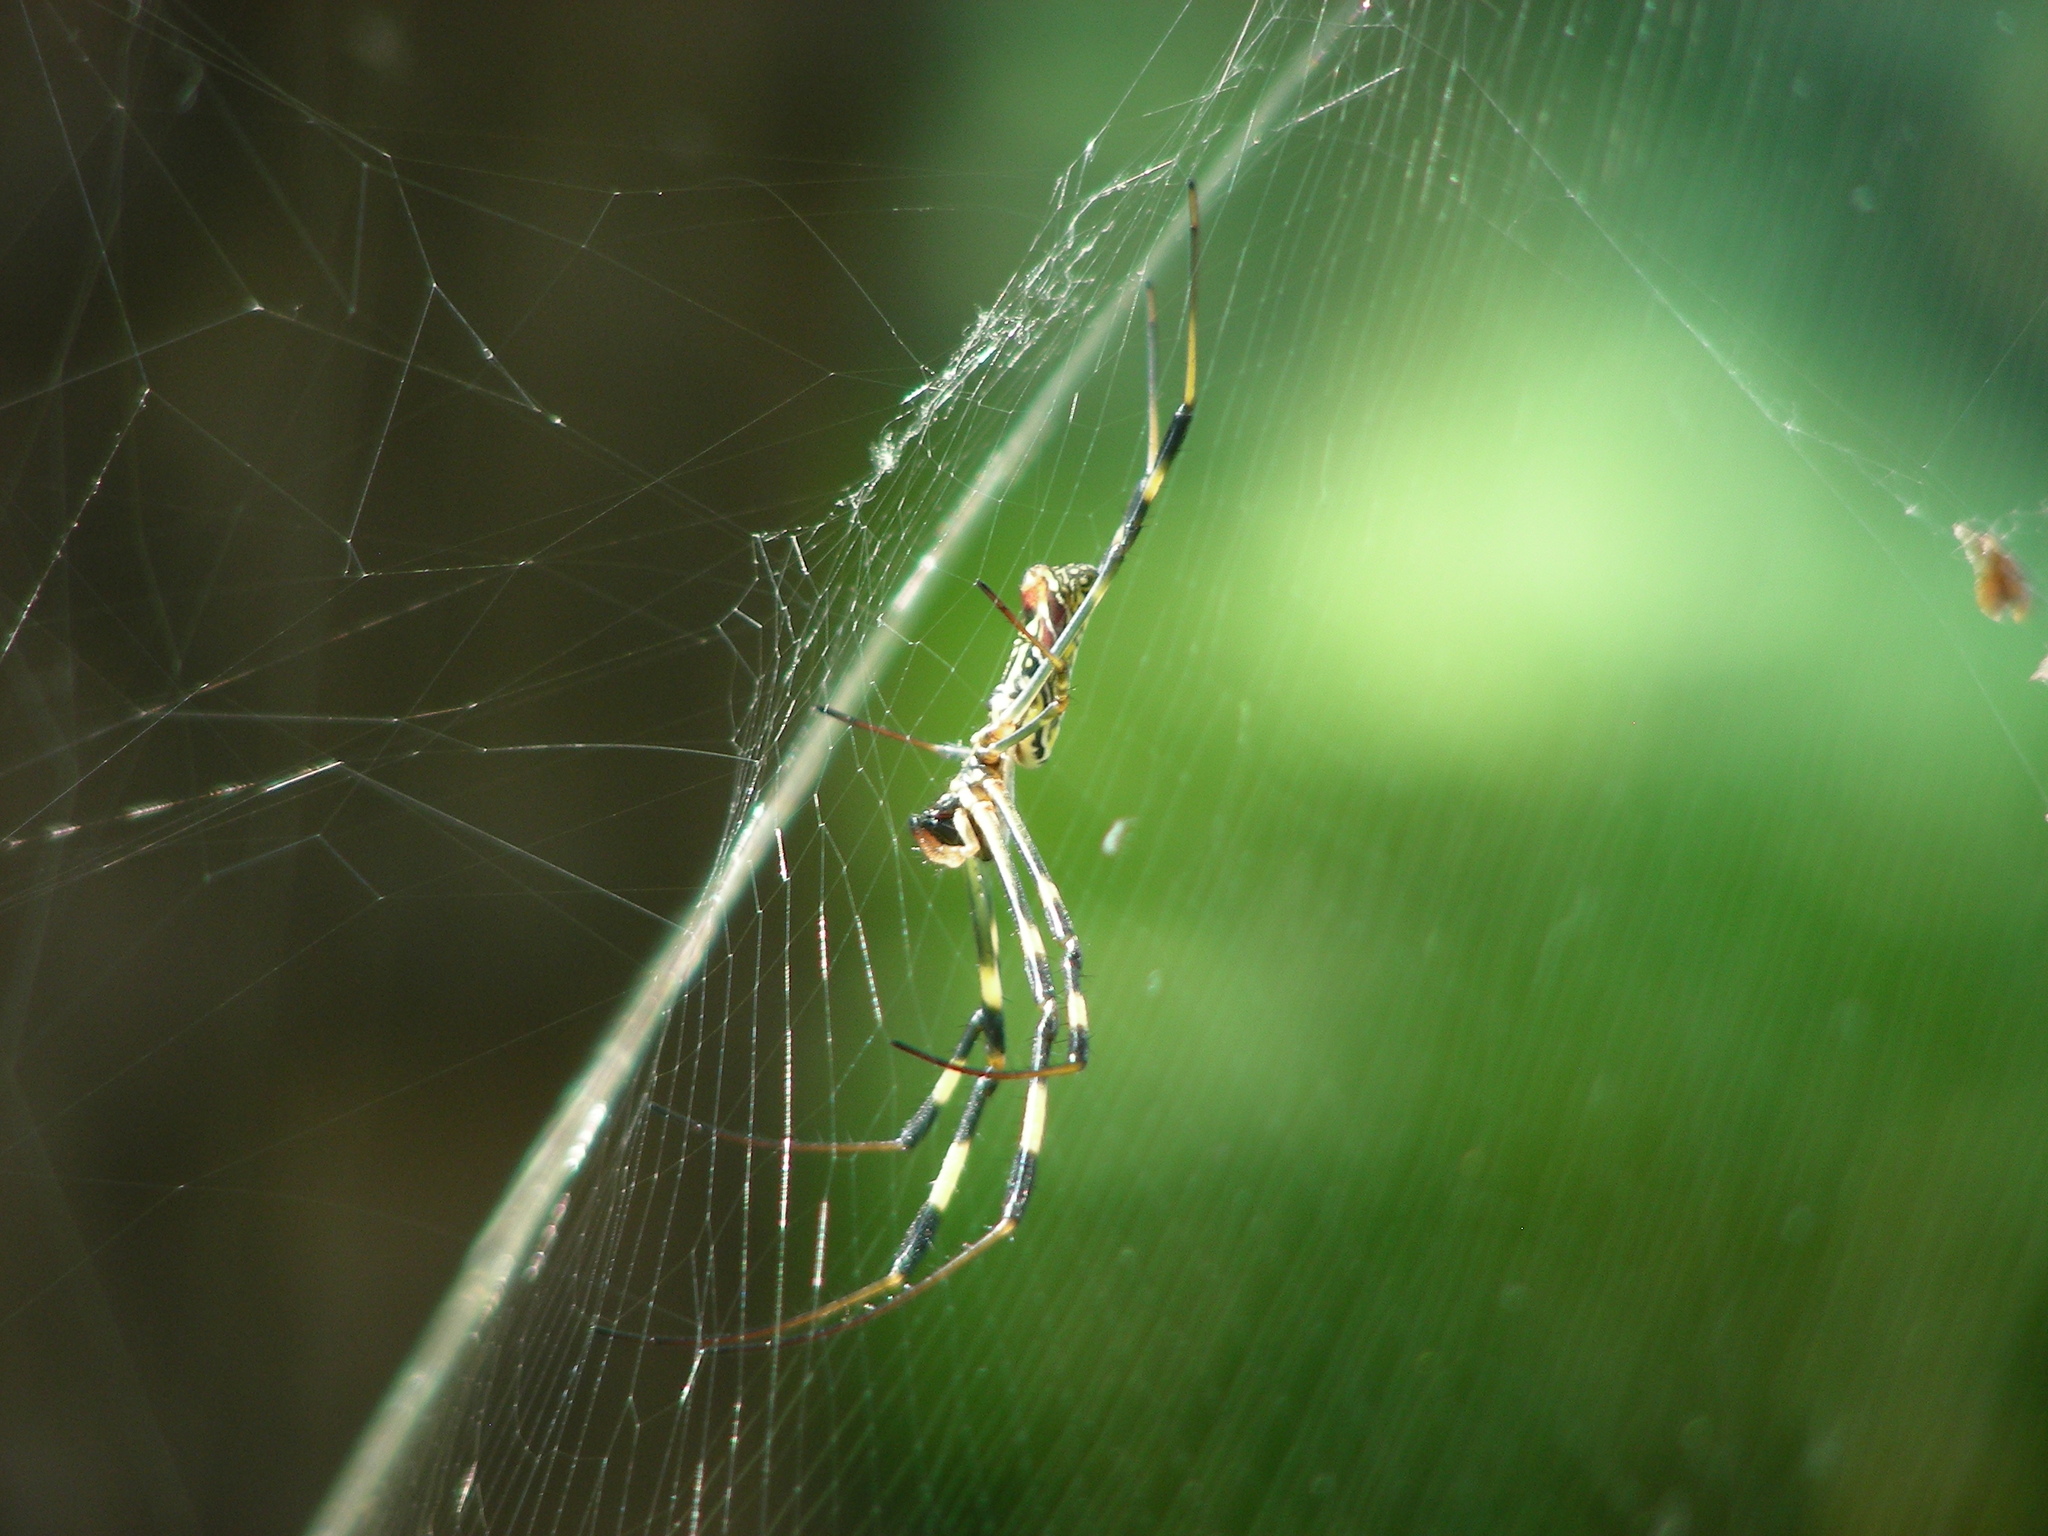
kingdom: Animalia
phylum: Arthropoda
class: Arachnida
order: Araneae
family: Araneidae
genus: Trichonephila
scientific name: Trichonephila clavata
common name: Jorō spider
